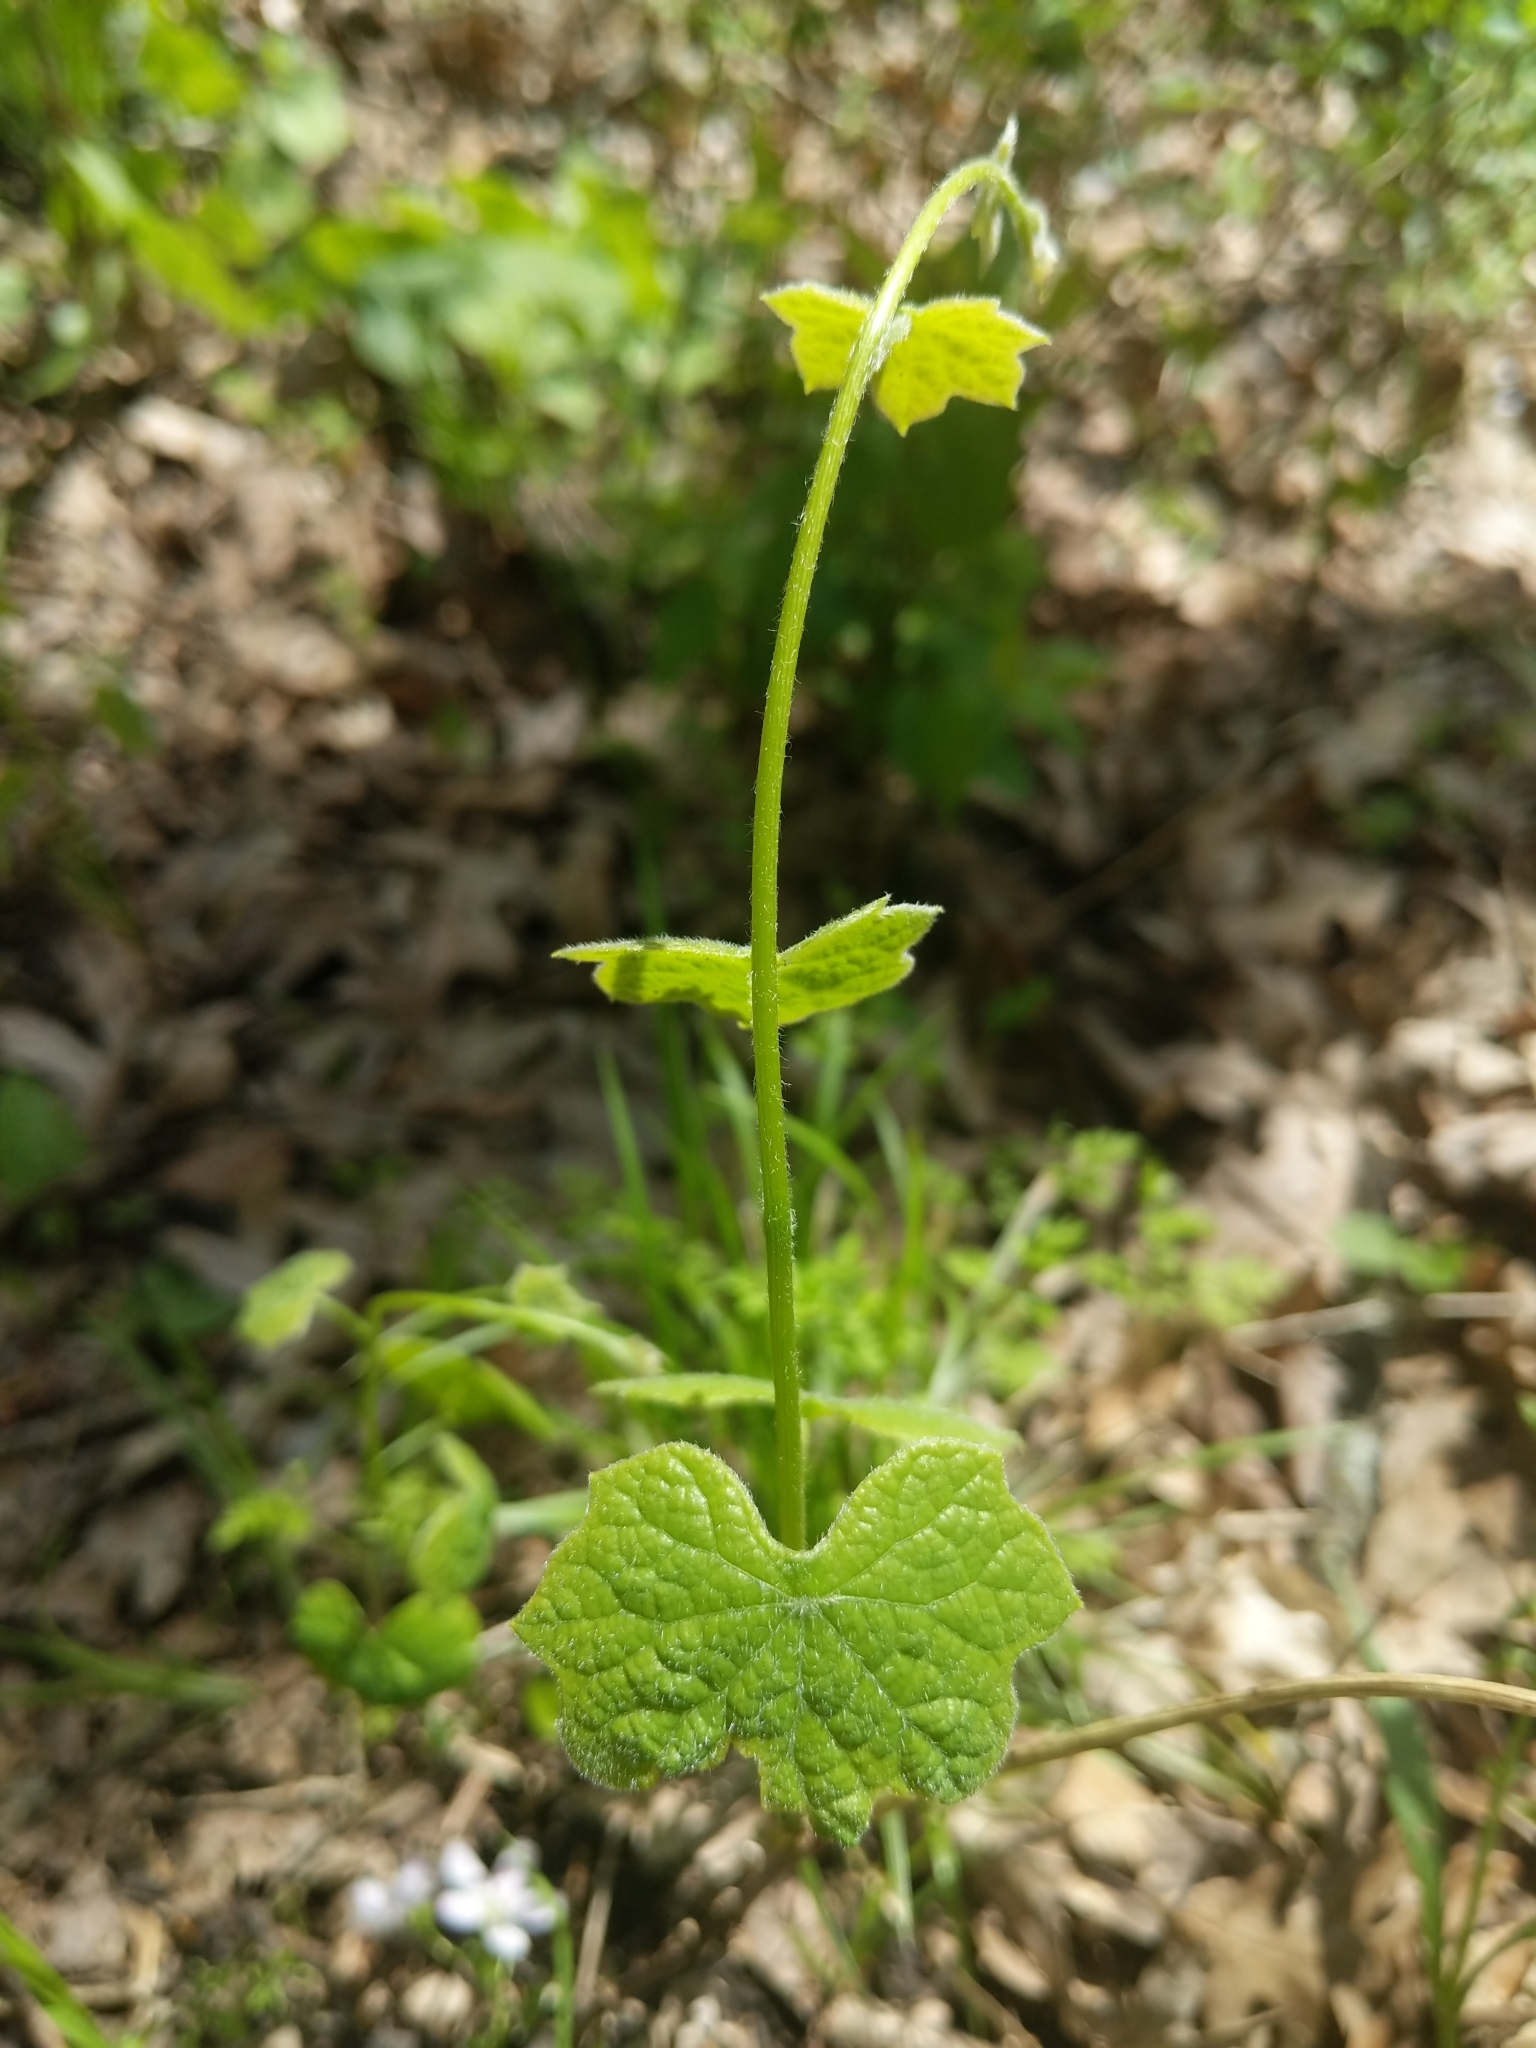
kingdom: Plantae
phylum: Tracheophyta
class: Magnoliopsida
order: Ranunculales
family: Menispermaceae
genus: Menispermum
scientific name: Menispermum canadense
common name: Moonseed
